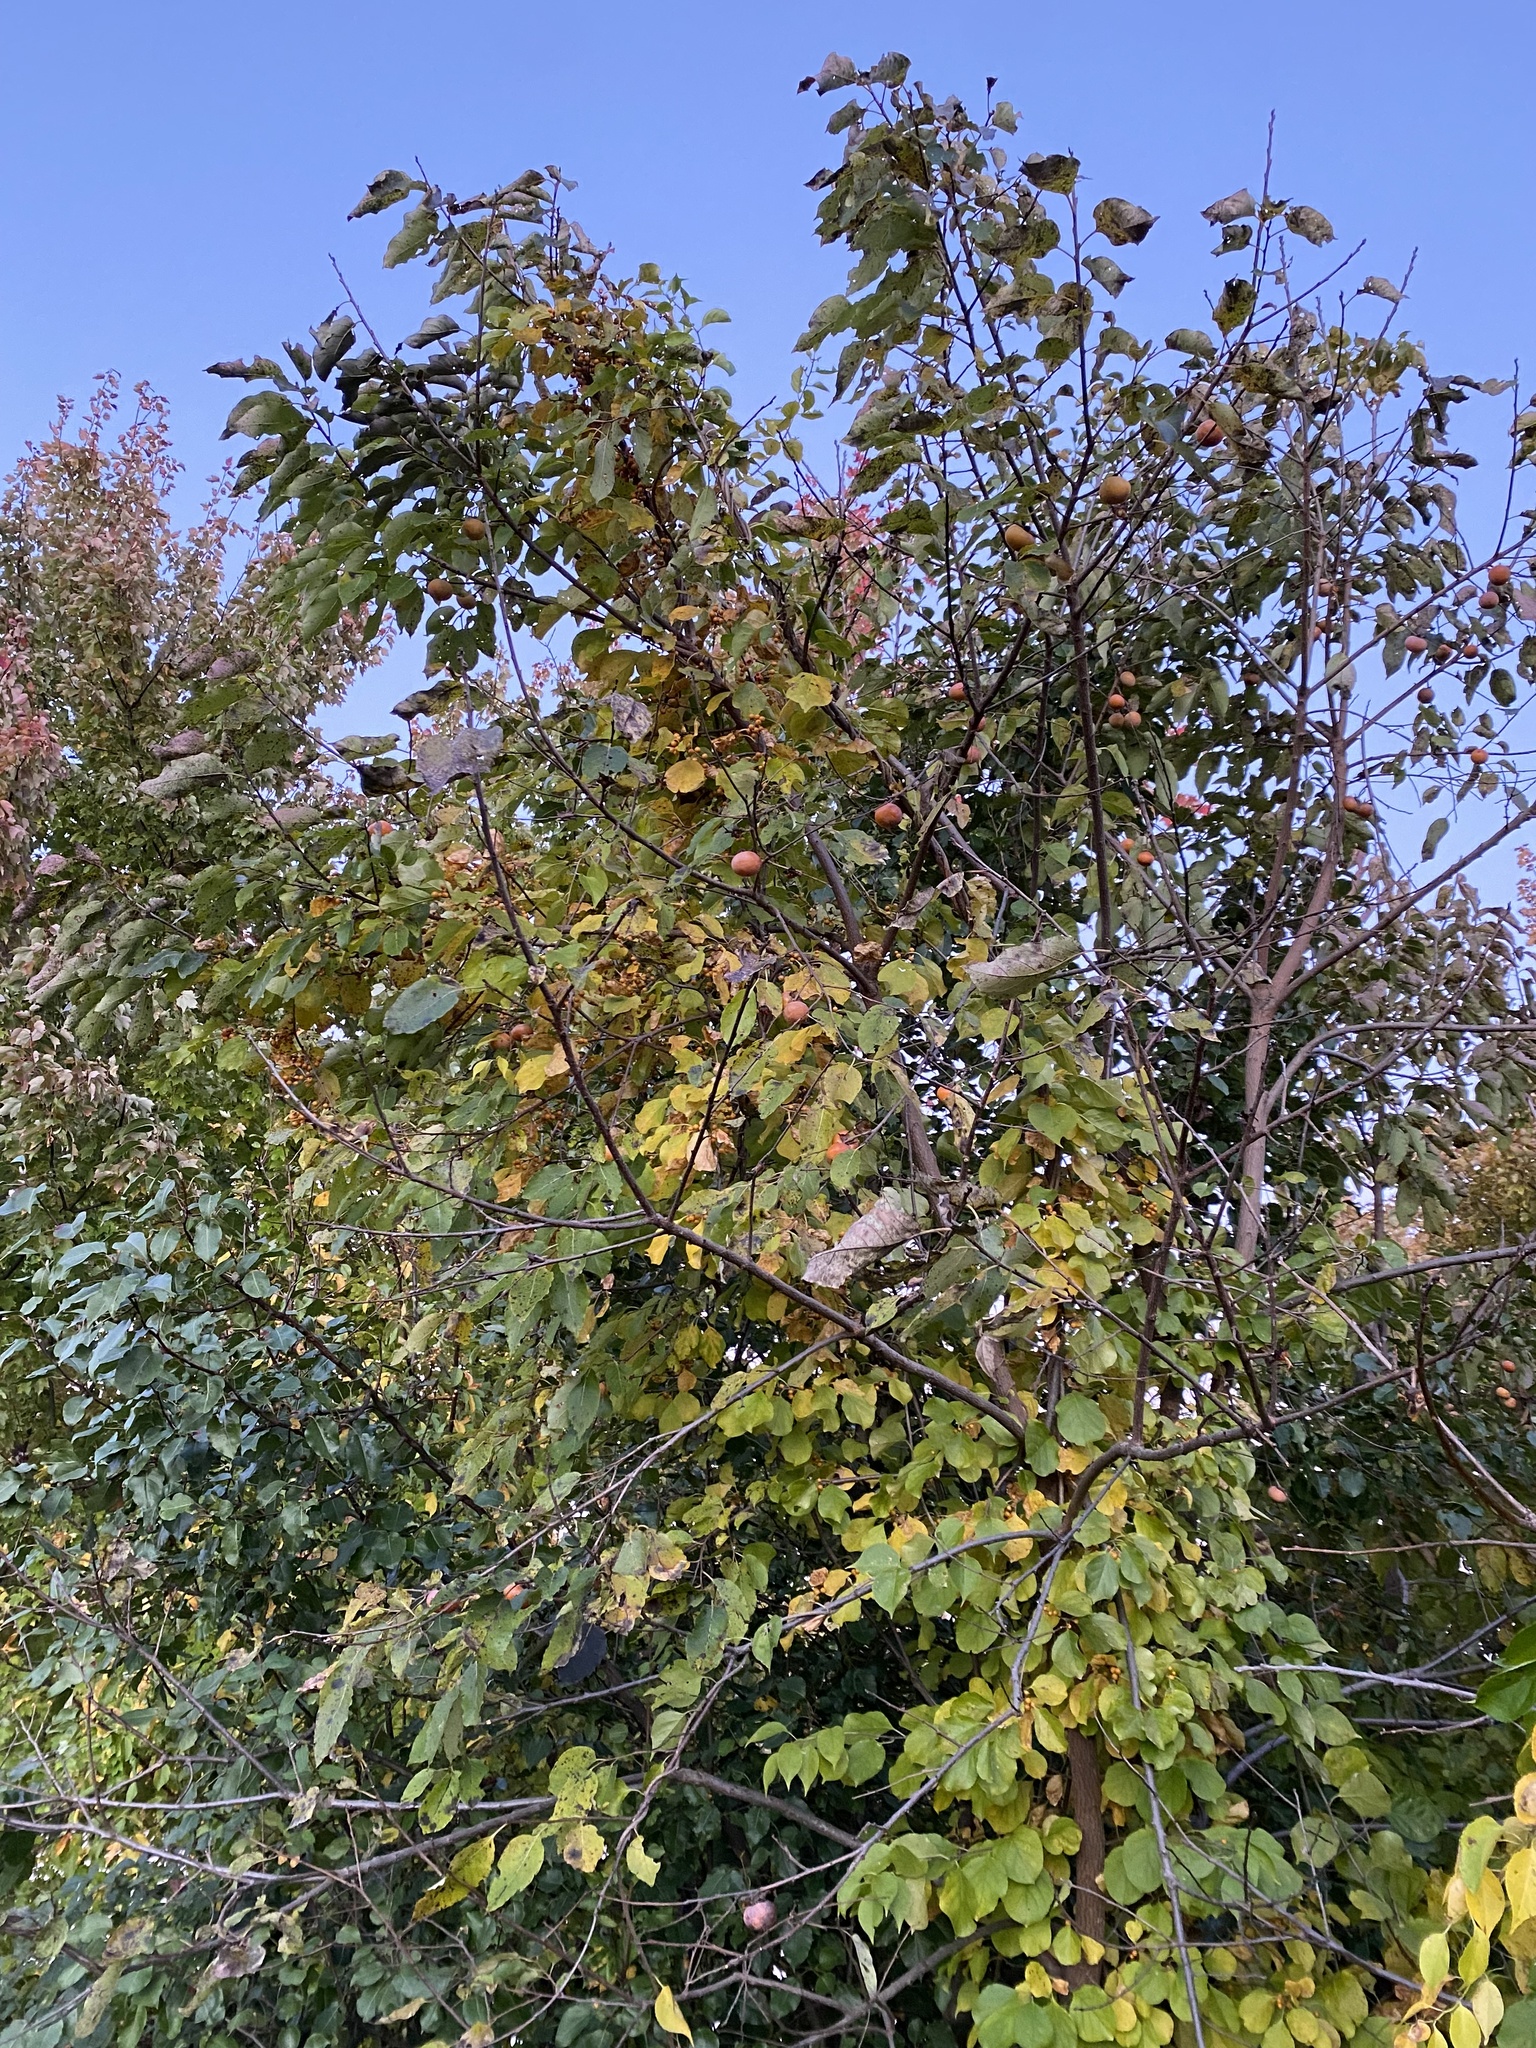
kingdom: Plantae
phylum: Tracheophyta
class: Magnoliopsida
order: Celastrales
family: Celastraceae
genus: Celastrus
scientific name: Celastrus orbiculatus
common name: Oriental bittersweet
